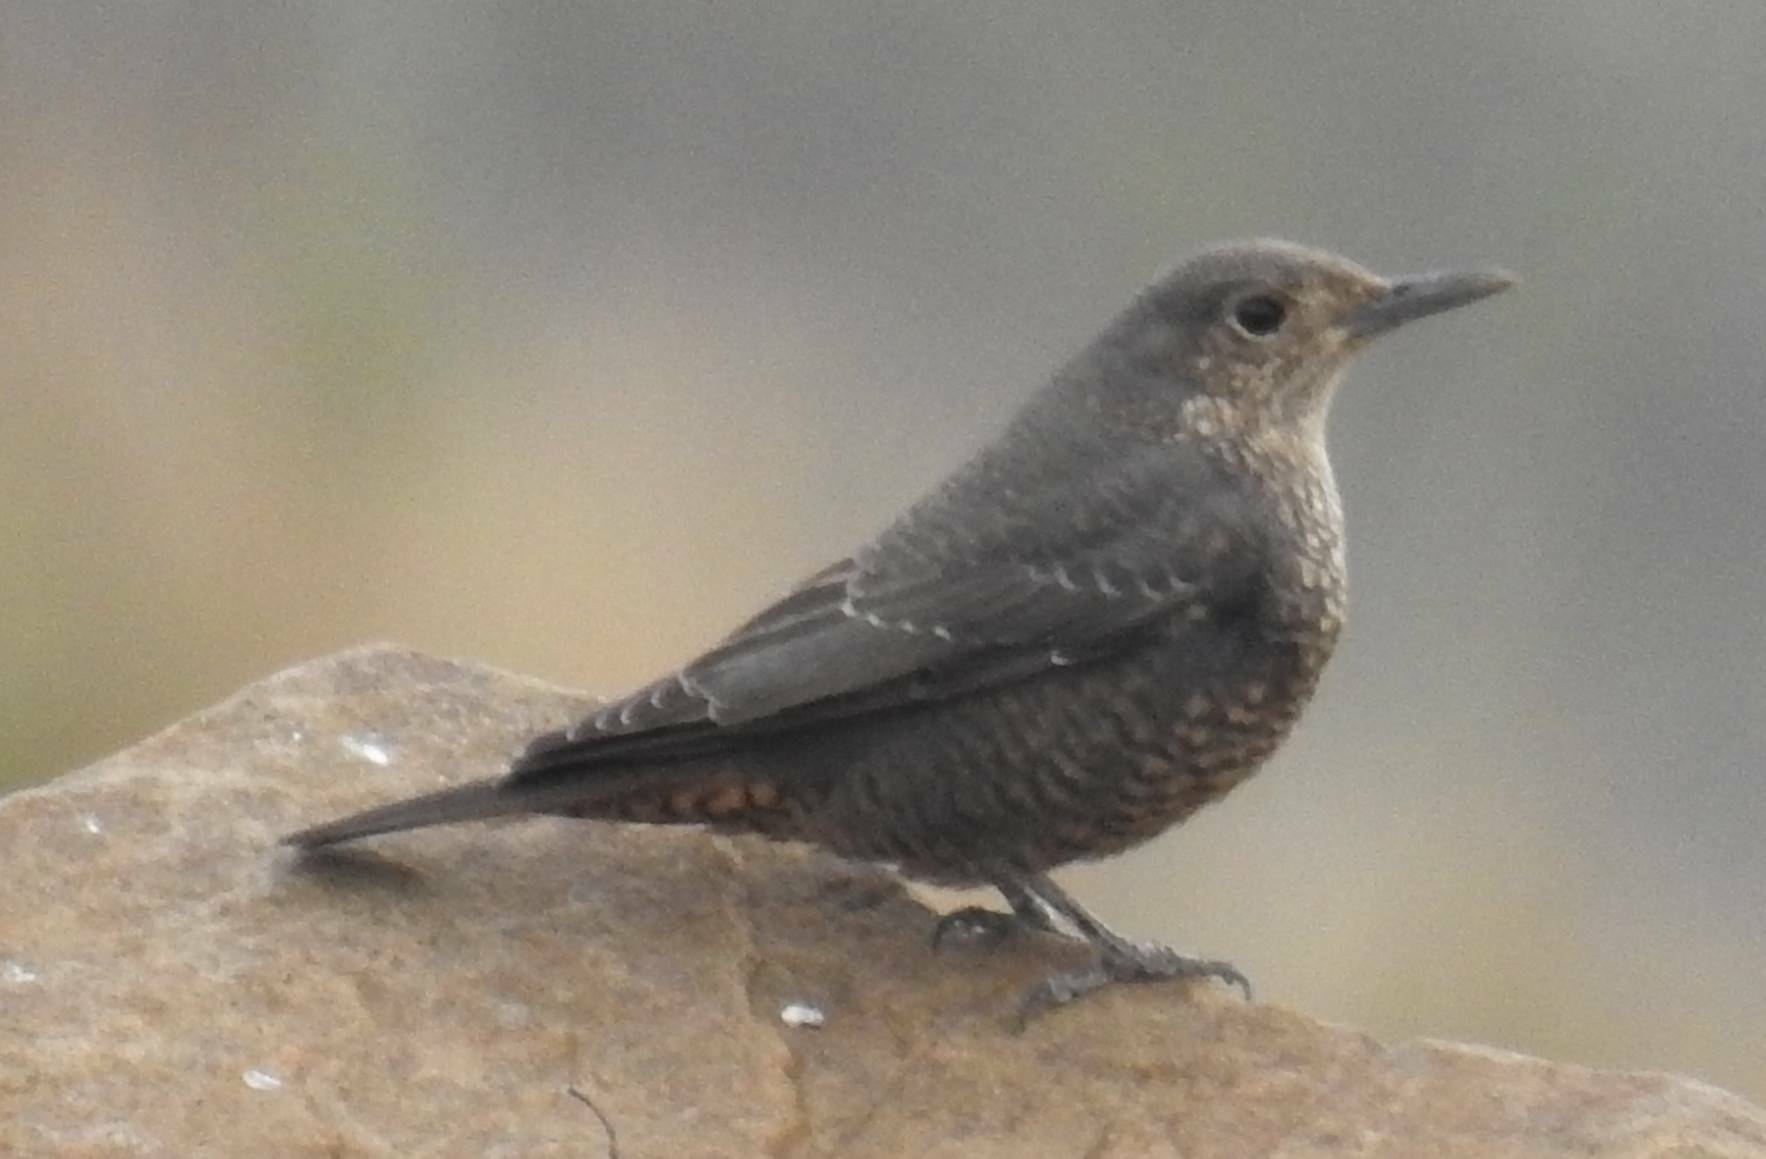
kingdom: Animalia
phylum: Chordata
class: Aves
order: Passeriformes
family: Muscicapidae
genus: Monticola
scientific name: Monticola solitarius
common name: Blue rock thrush
